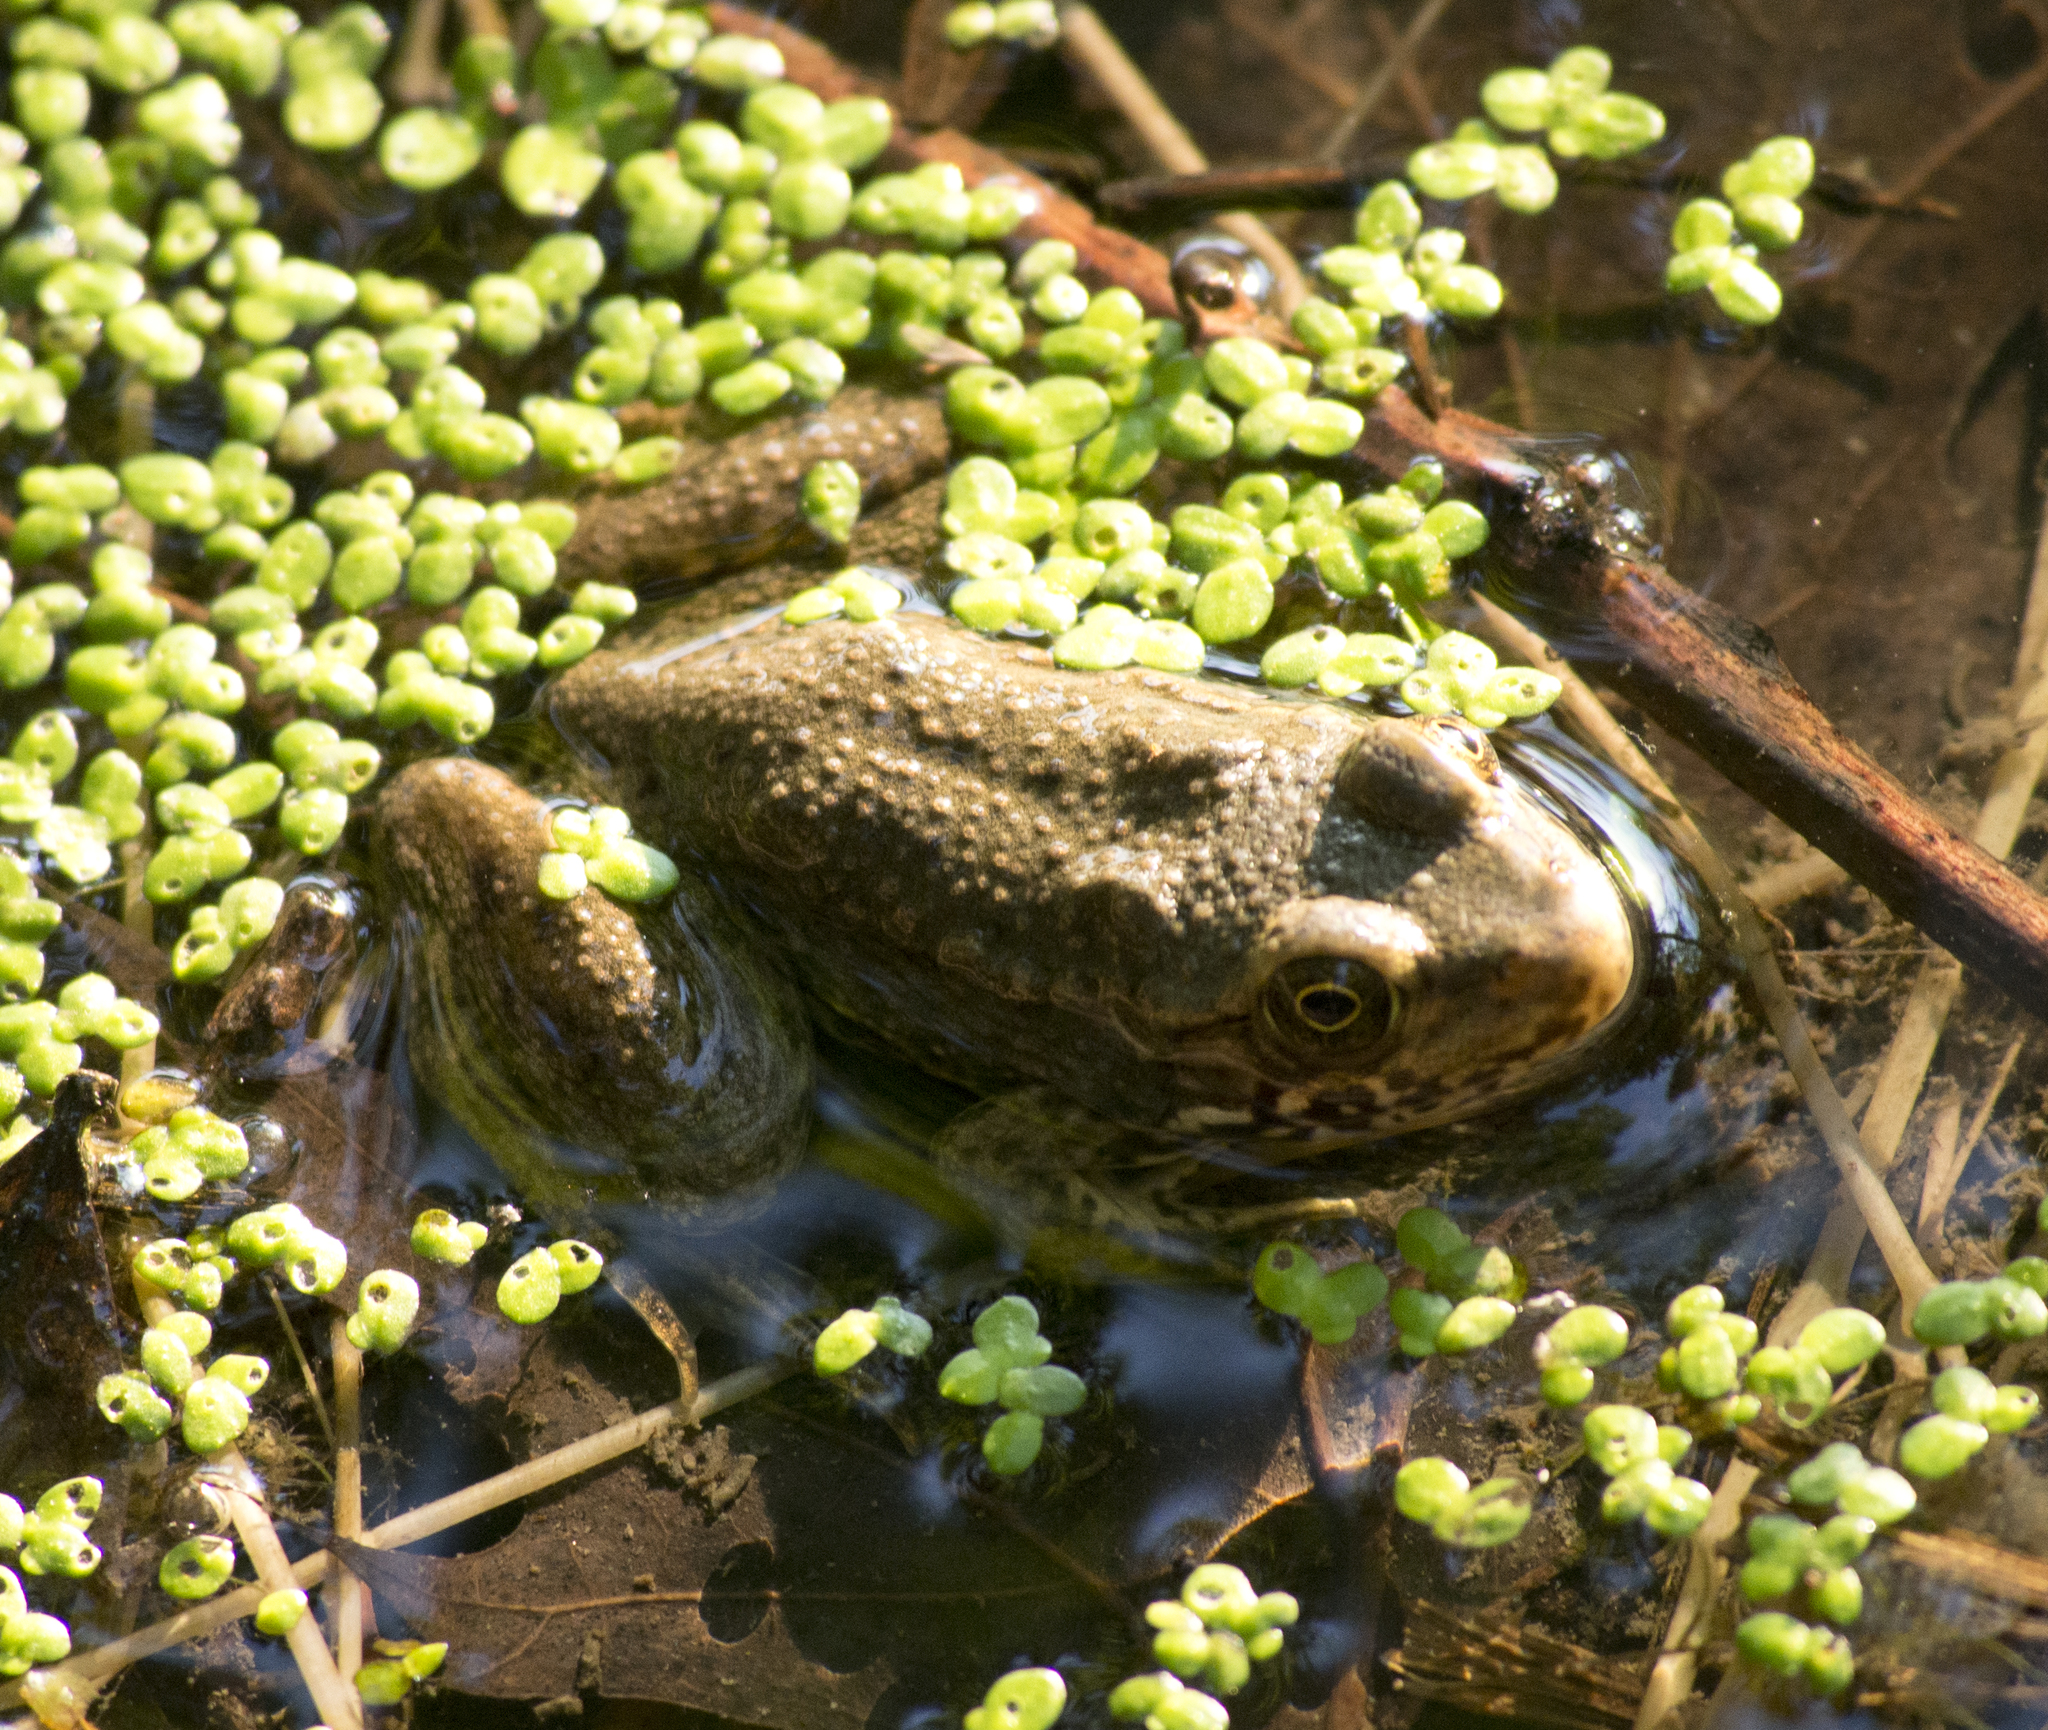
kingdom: Animalia
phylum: Chordata
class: Amphibia
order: Anura
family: Ranidae
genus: Lithobates
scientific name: Lithobates clamitans
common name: Green frog
